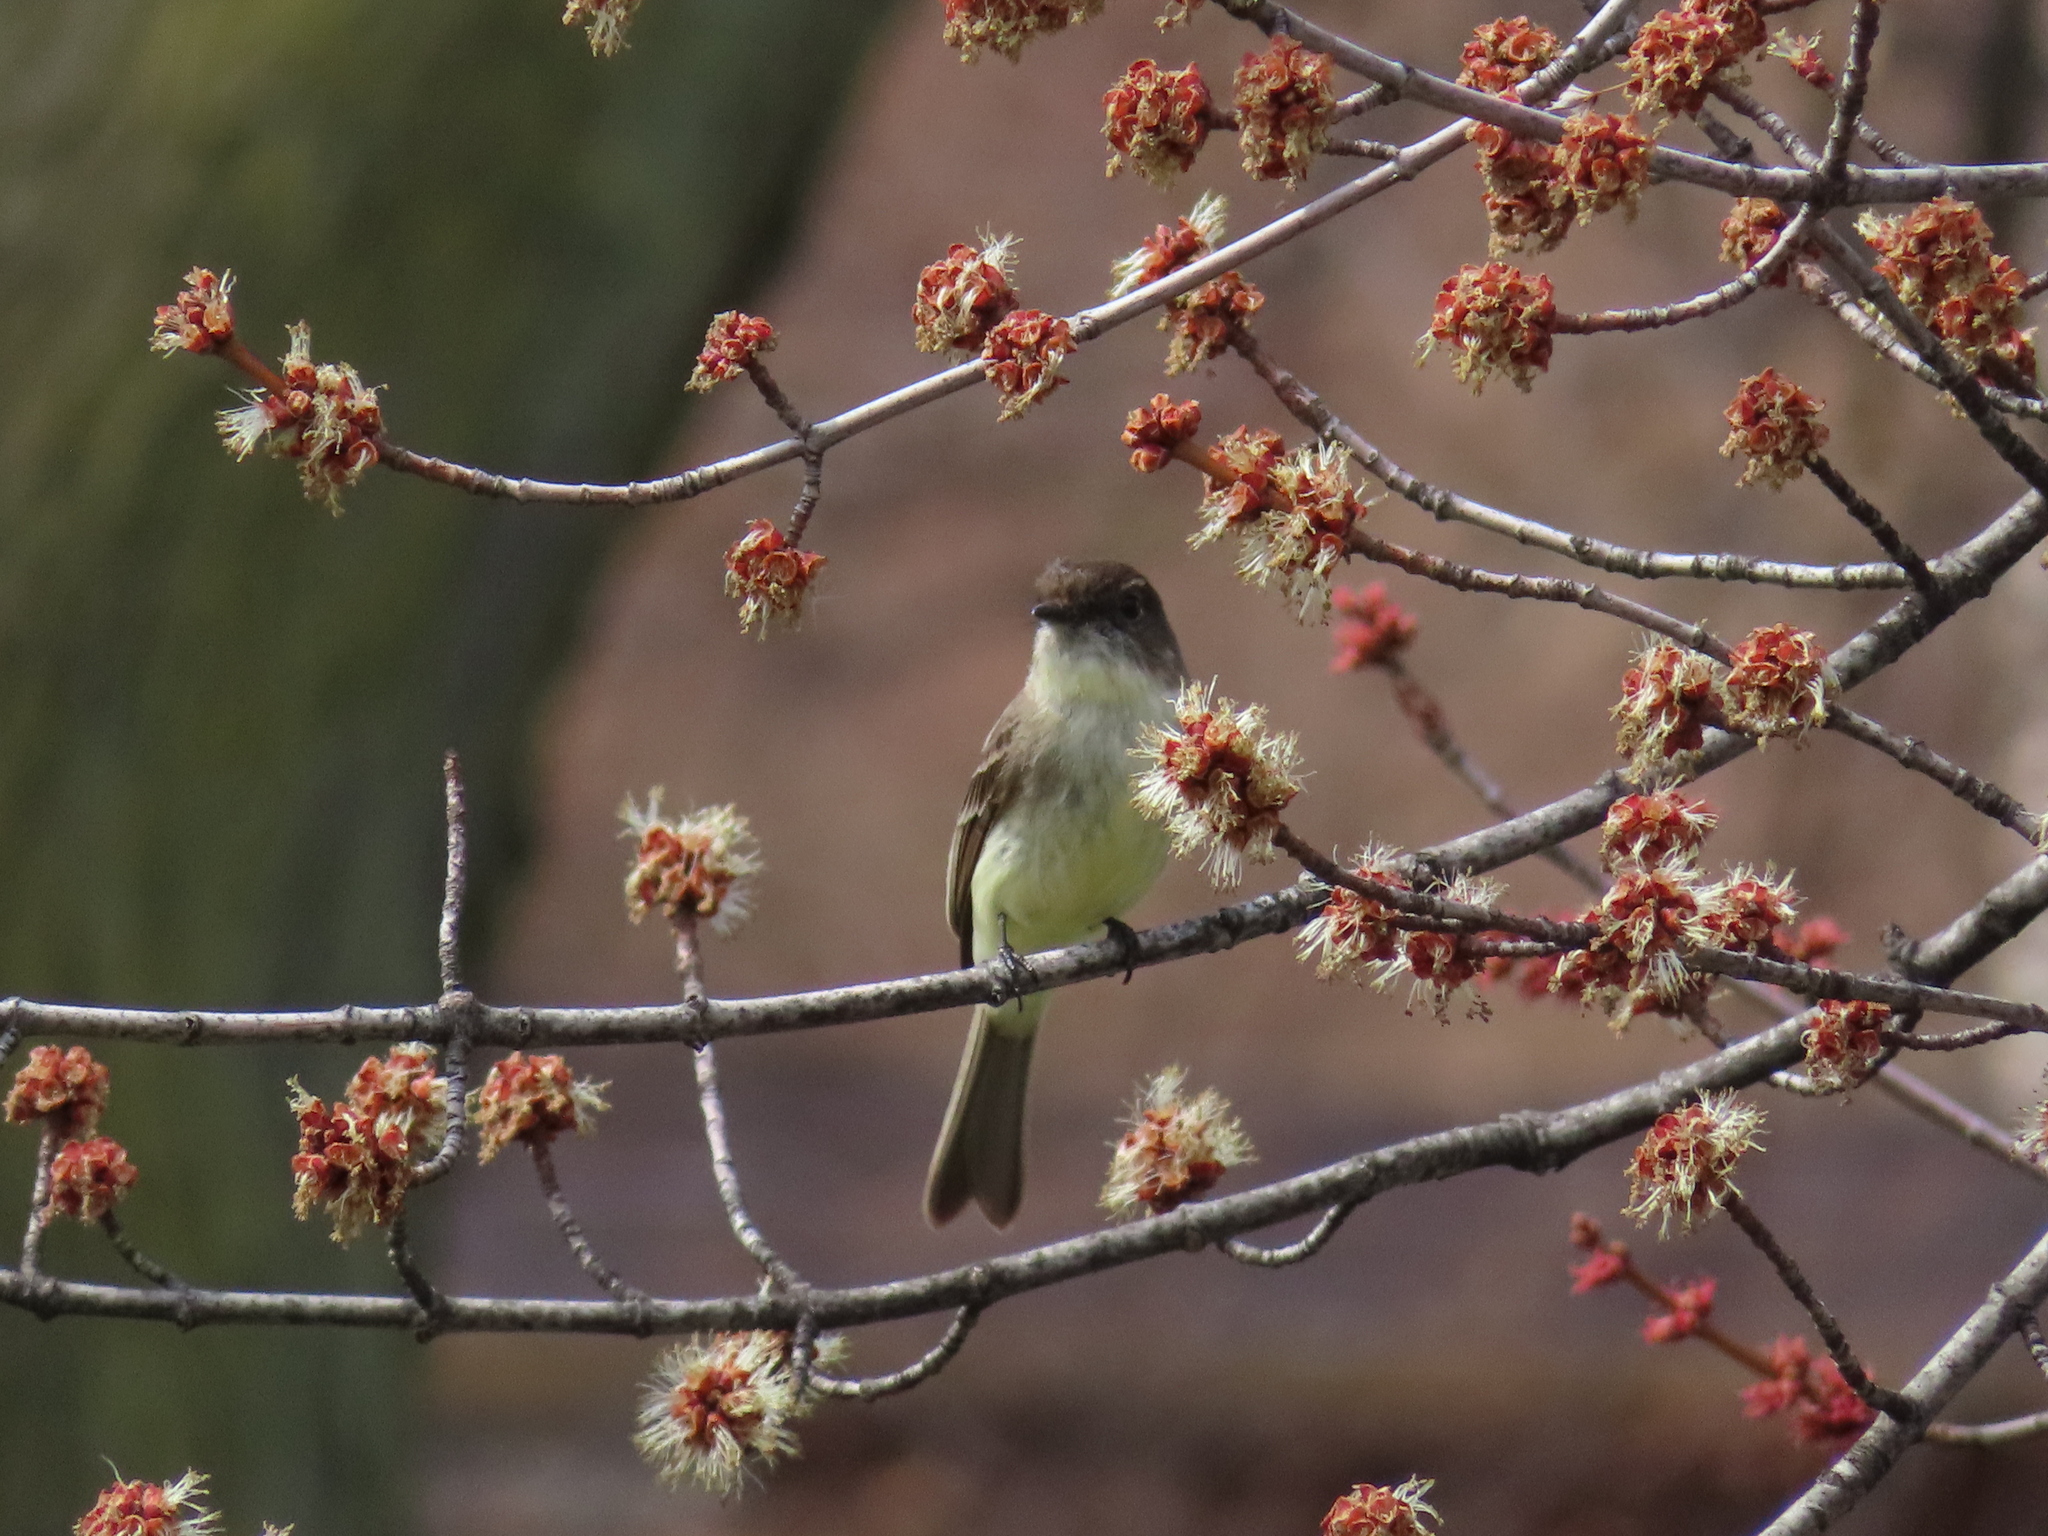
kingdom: Animalia
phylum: Chordata
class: Aves
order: Passeriformes
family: Tyrannidae
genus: Sayornis
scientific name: Sayornis phoebe
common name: Eastern phoebe
